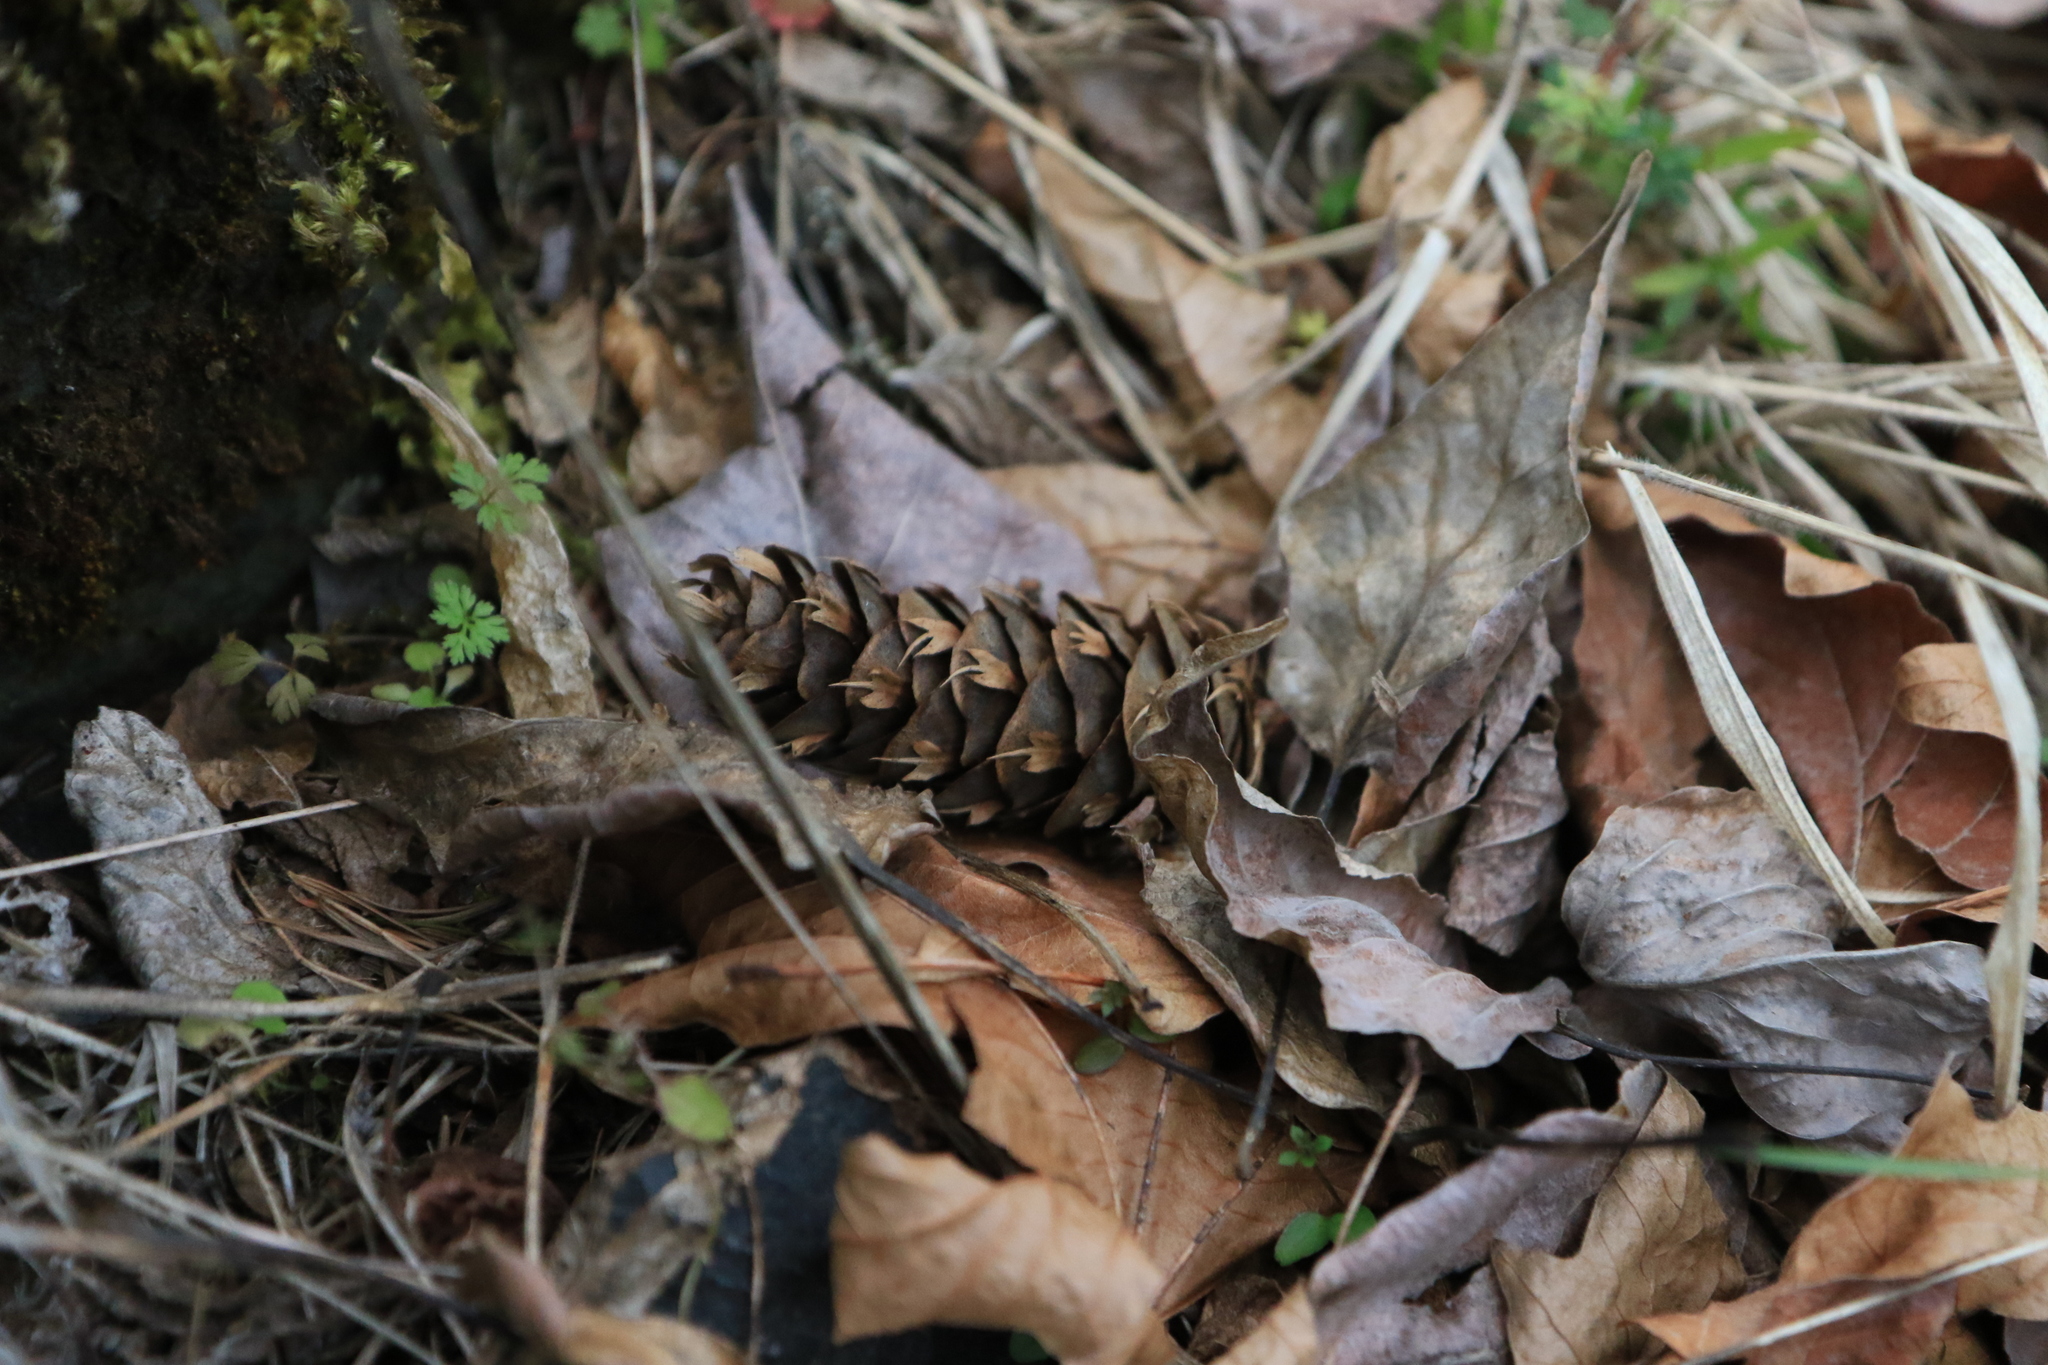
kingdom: Plantae
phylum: Tracheophyta
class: Pinopsida
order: Pinales
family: Pinaceae
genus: Pseudotsuga
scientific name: Pseudotsuga menziesii
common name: Douglas fir
